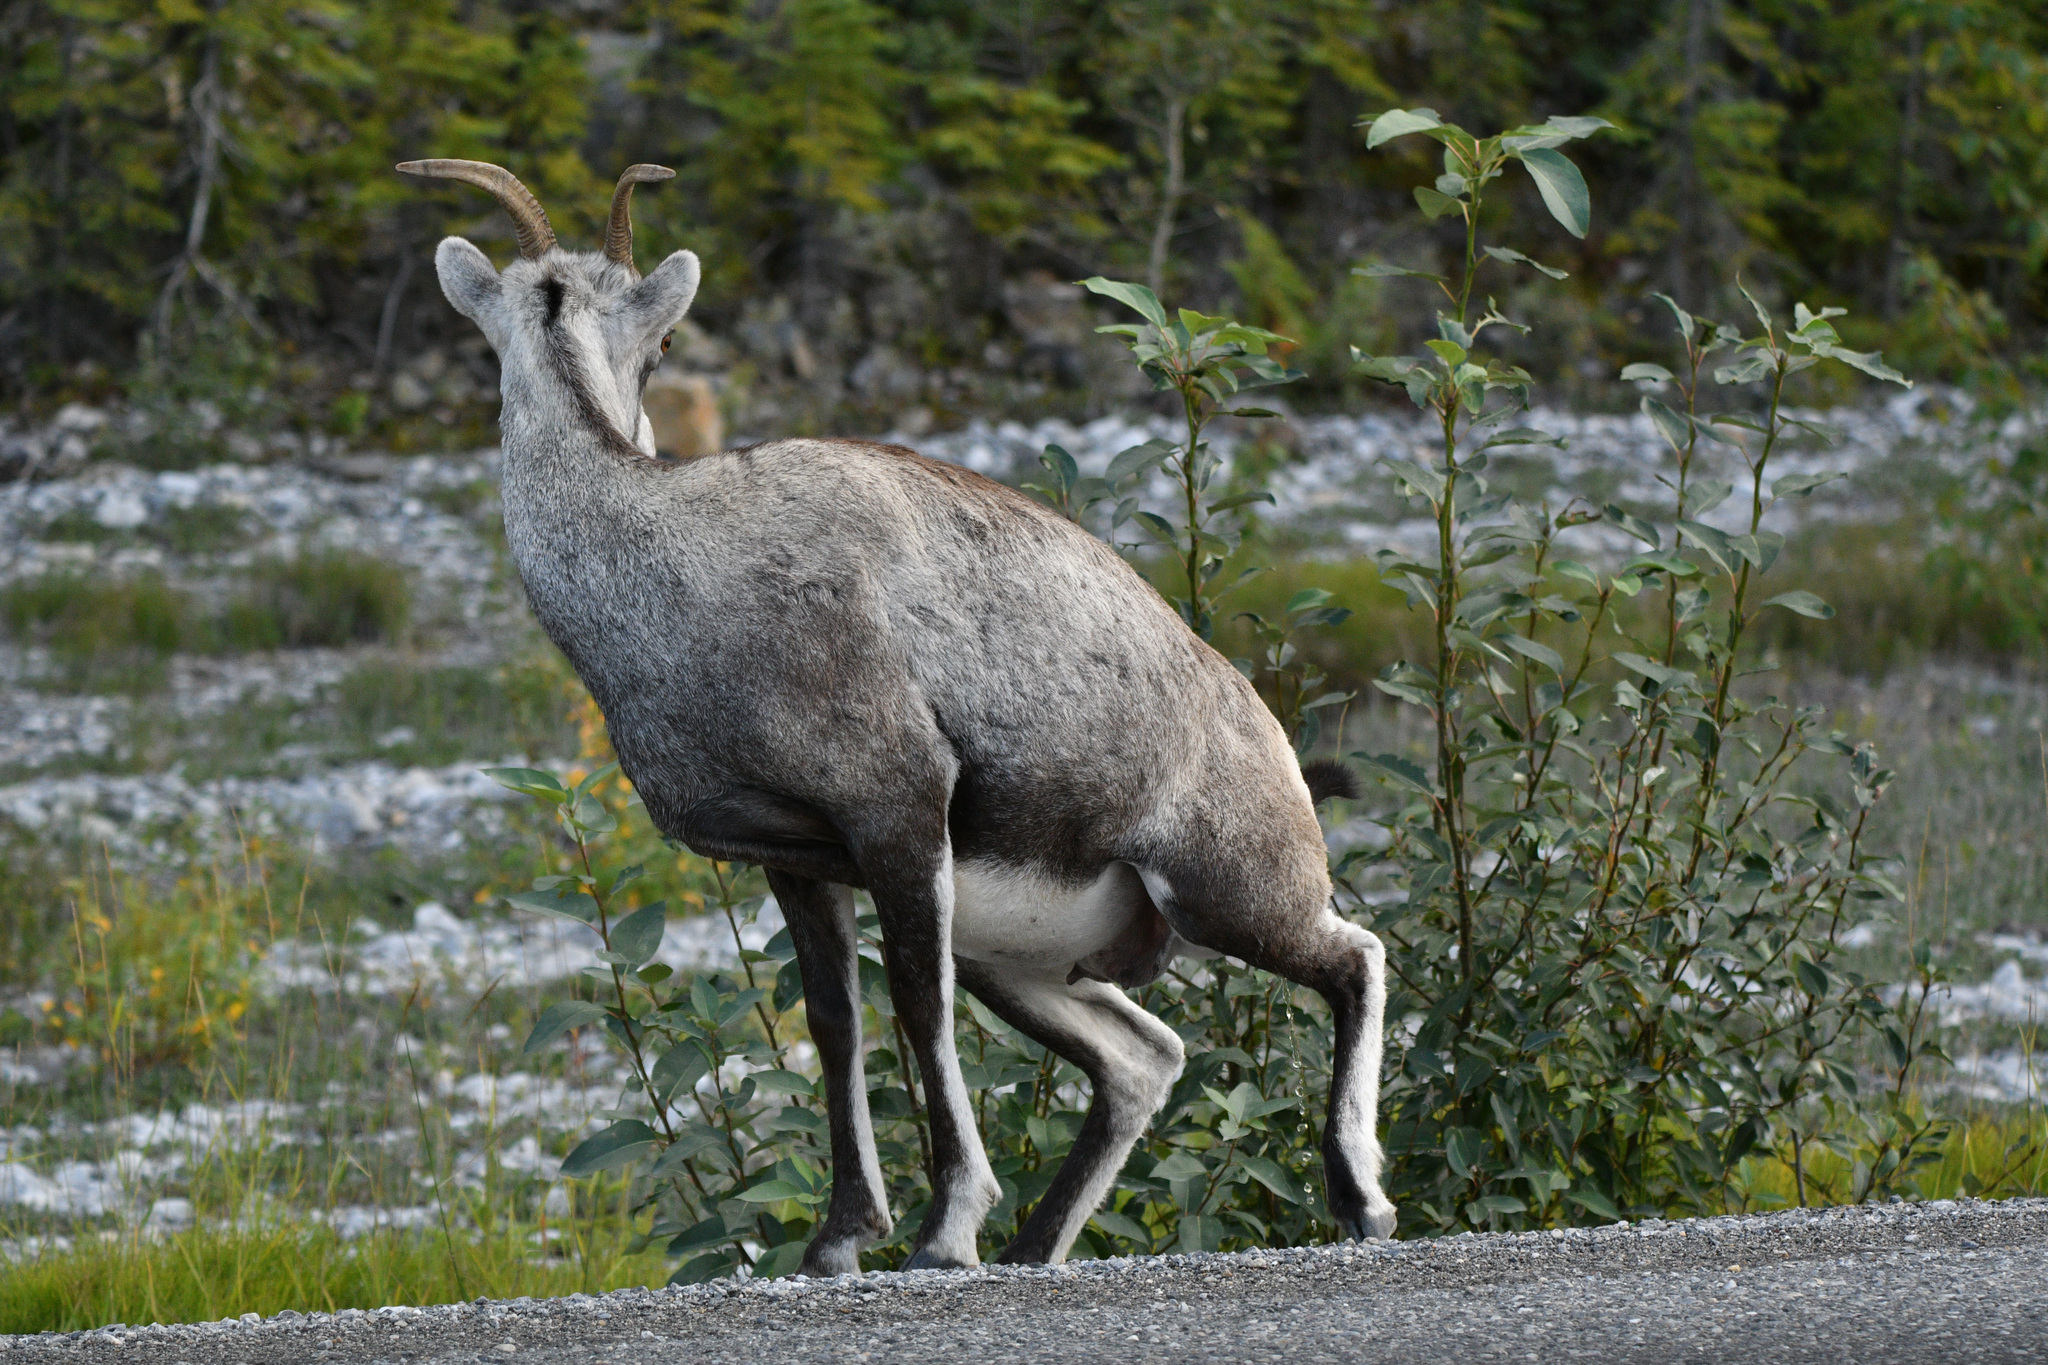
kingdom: Animalia
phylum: Chordata
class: Mammalia
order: Artiodactyla
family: Bovidae
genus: Ovis
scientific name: Ovis dalli
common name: Dall's sheep
